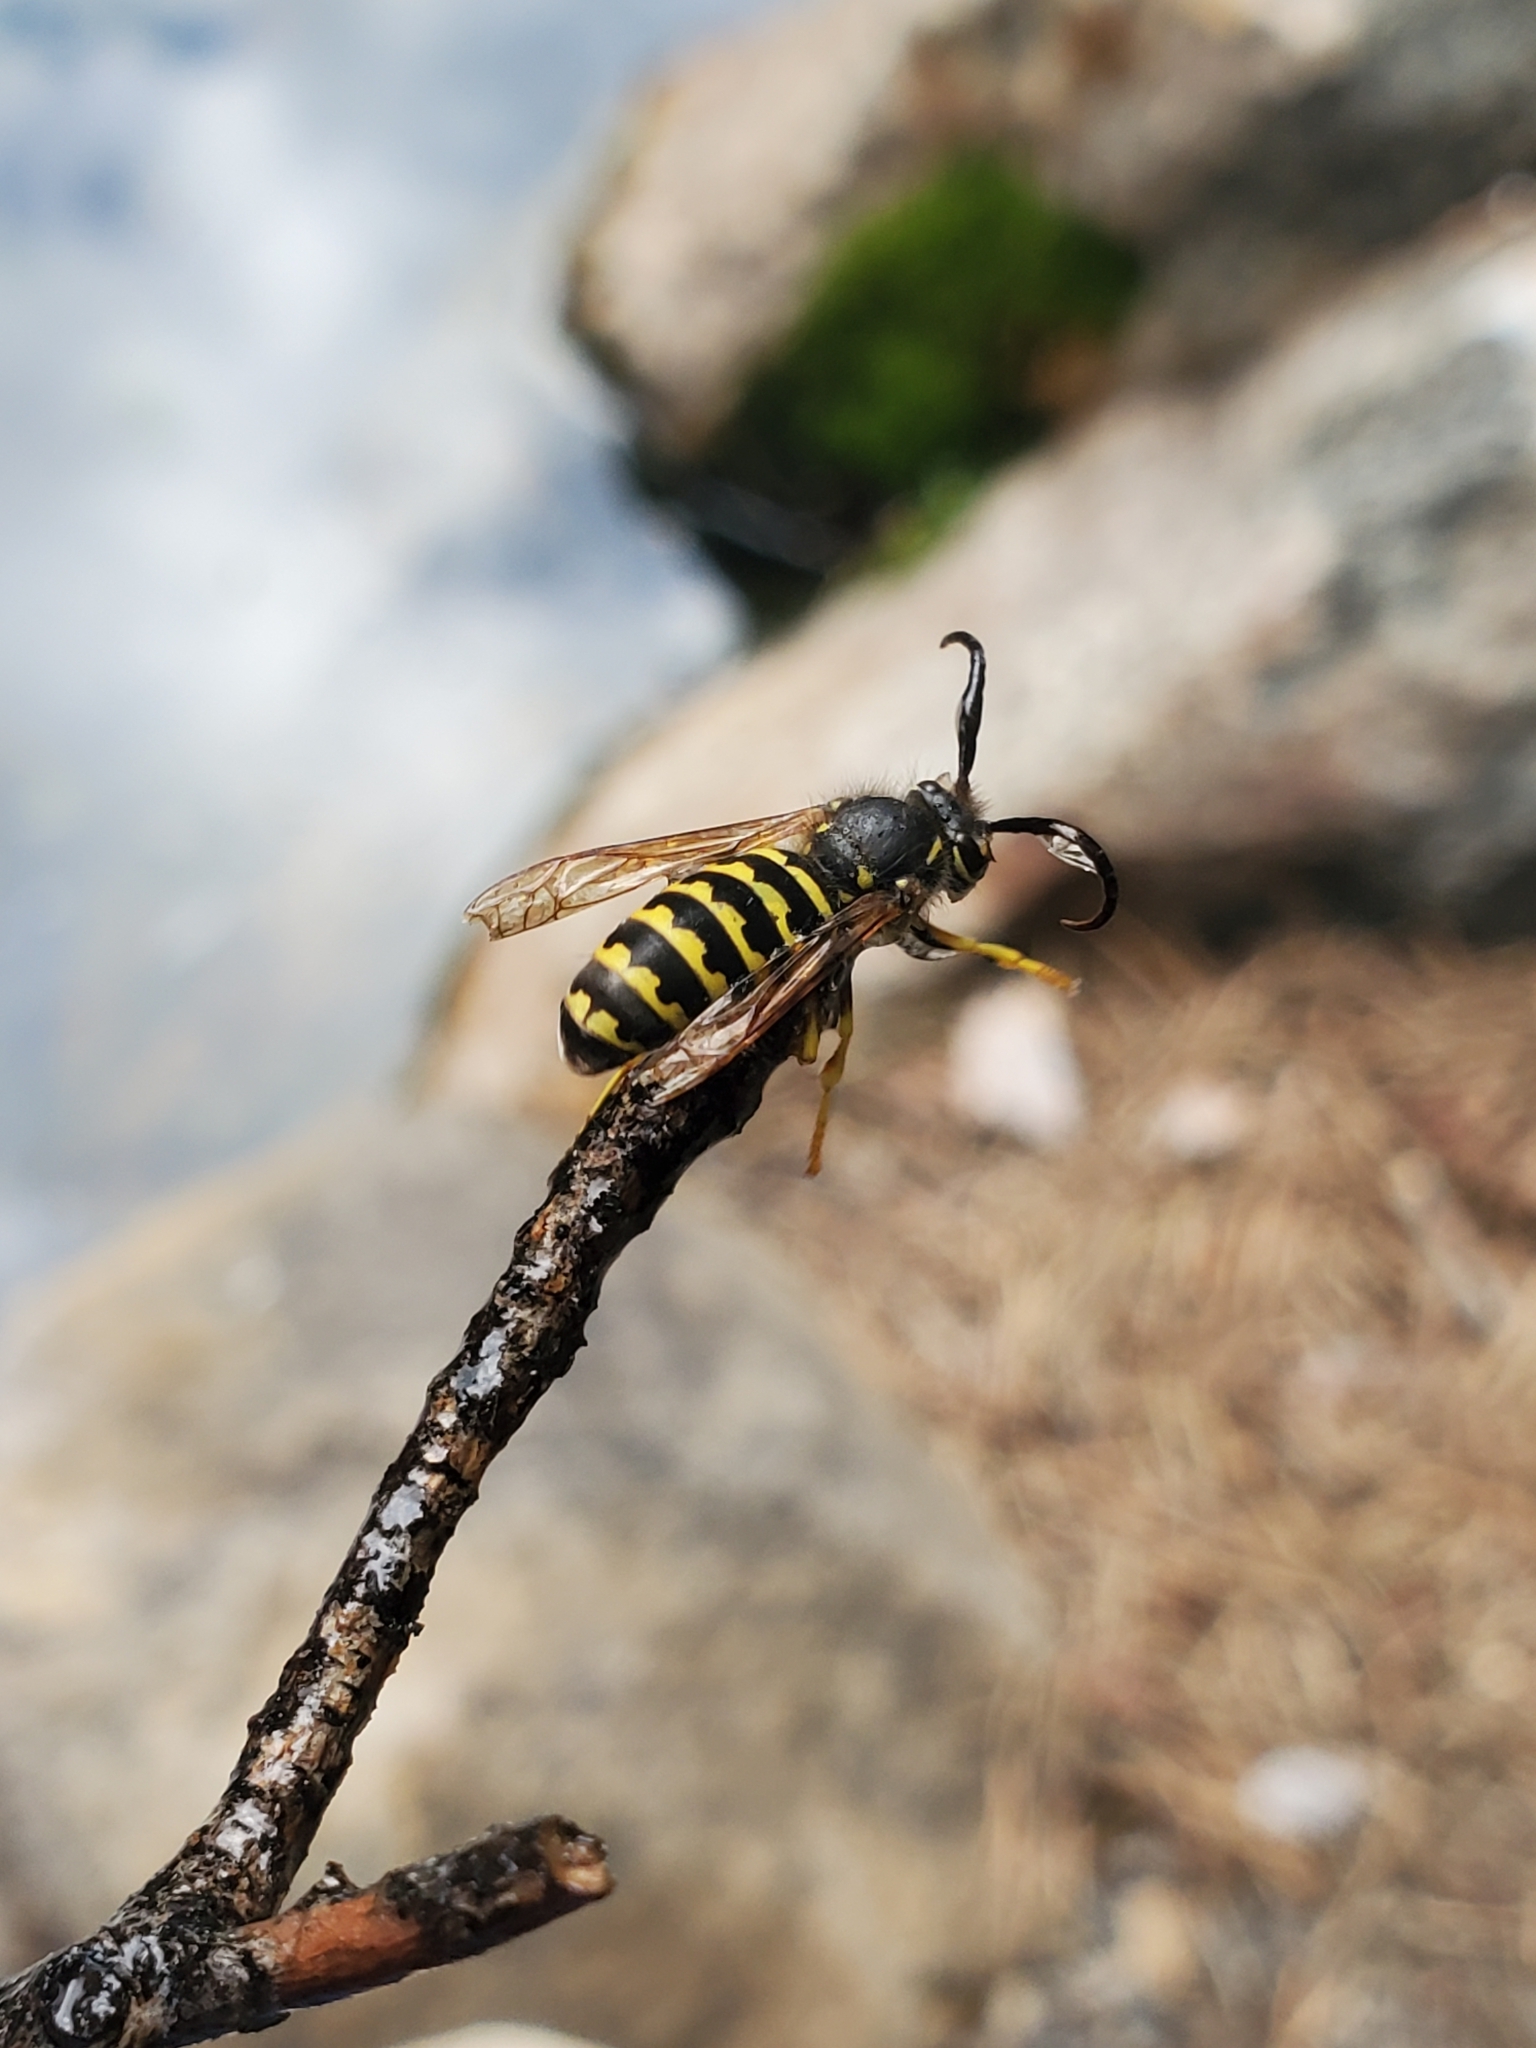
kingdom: Animalia
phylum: Arthropoda
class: Insecta
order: Hymenoptera
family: Vespidae
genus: Dolichovespula
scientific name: Dolichovespula arenaria
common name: Aerial yellowjacket
